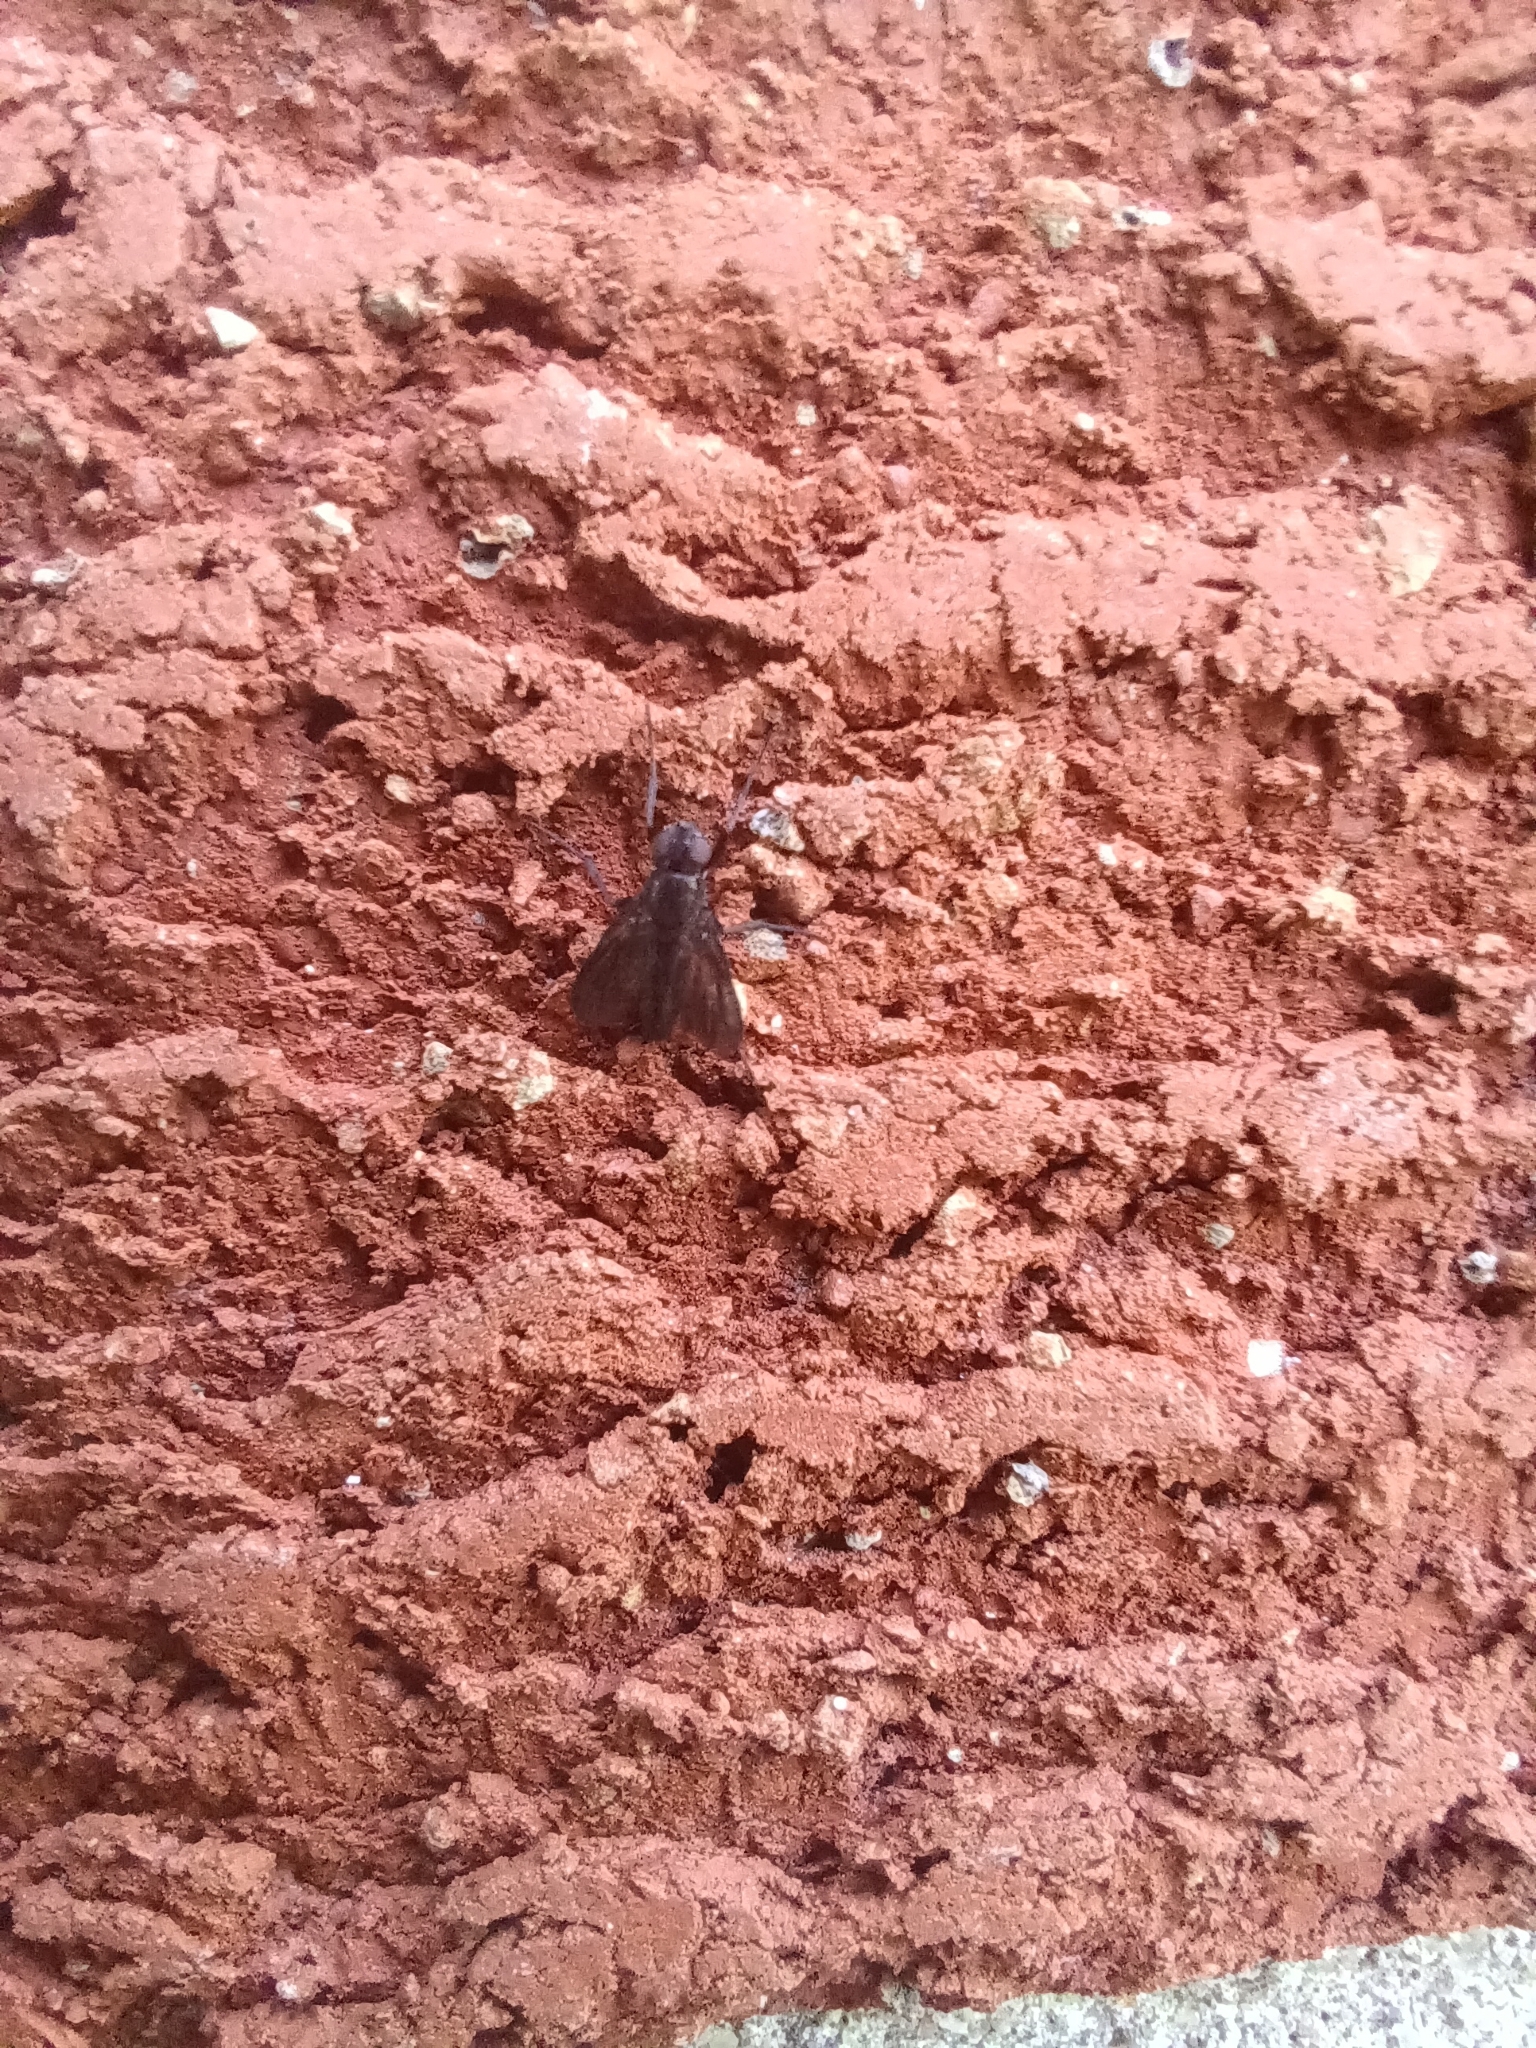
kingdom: Animalia
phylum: Arthropoda
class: Insecta
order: Diptera
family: Calliphoridae
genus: Melanophora
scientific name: Melanophora roralis
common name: Smoky-winged woodlouse-fly
